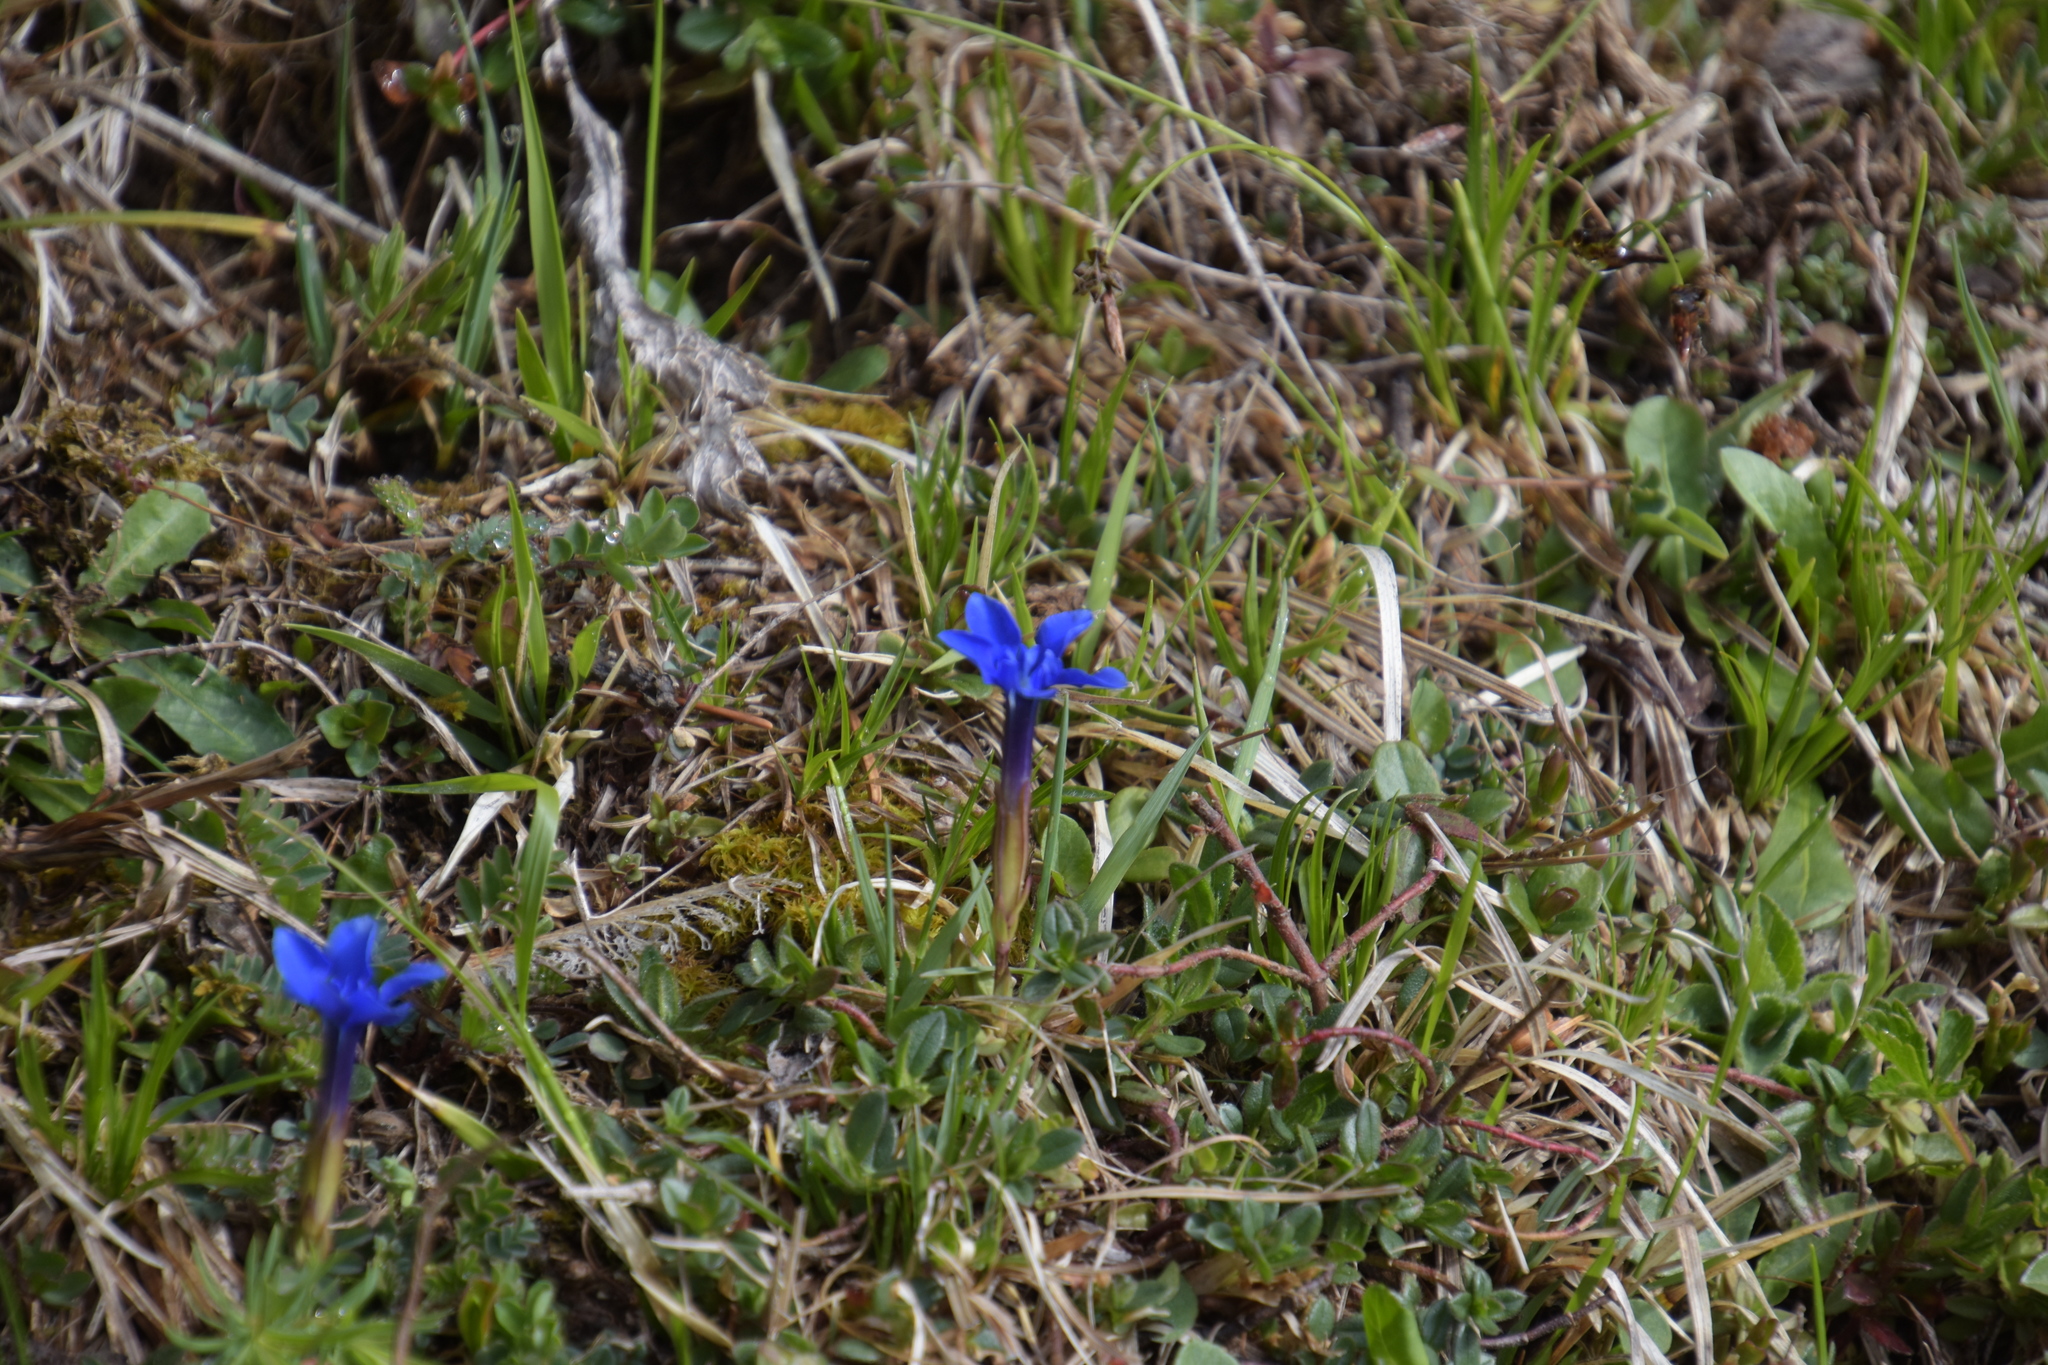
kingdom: Plantae
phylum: Tracheophyta
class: Magnoliopsida
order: Gentianales
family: Gentianaceae
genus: Gentiana
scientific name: Gentiana verna
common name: Spring gentian
